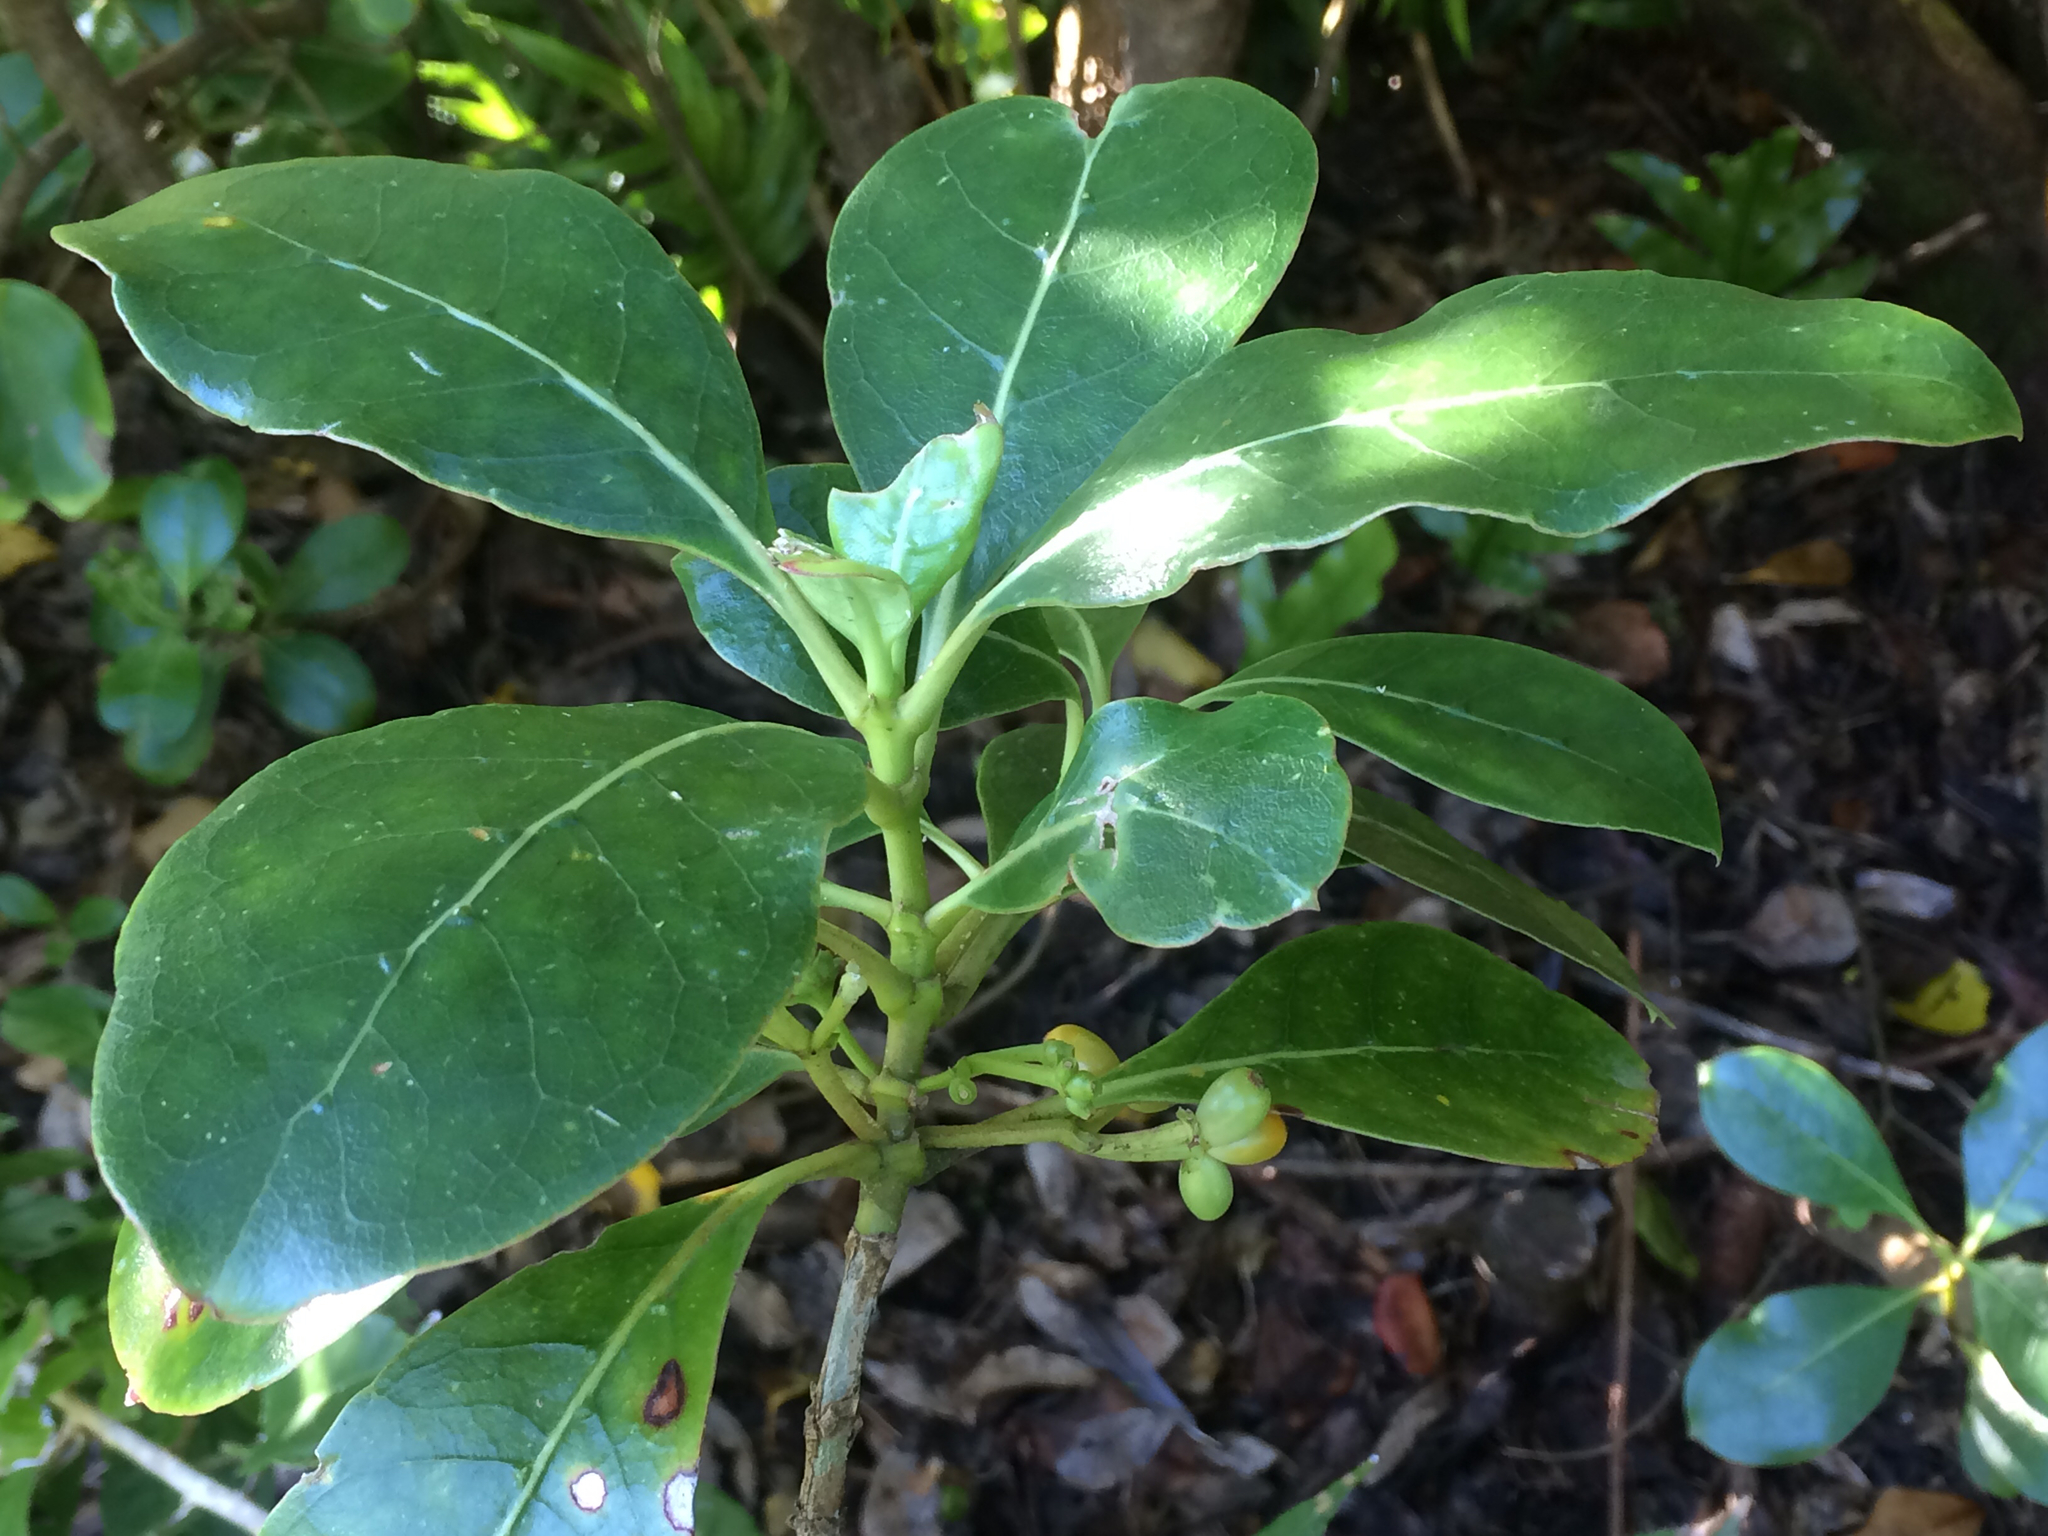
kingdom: Plantae
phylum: Tracheophyta
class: Magnoliopsida
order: Gentianales
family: Rubiaceae
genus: Coprosma
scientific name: Coprosma lucida
